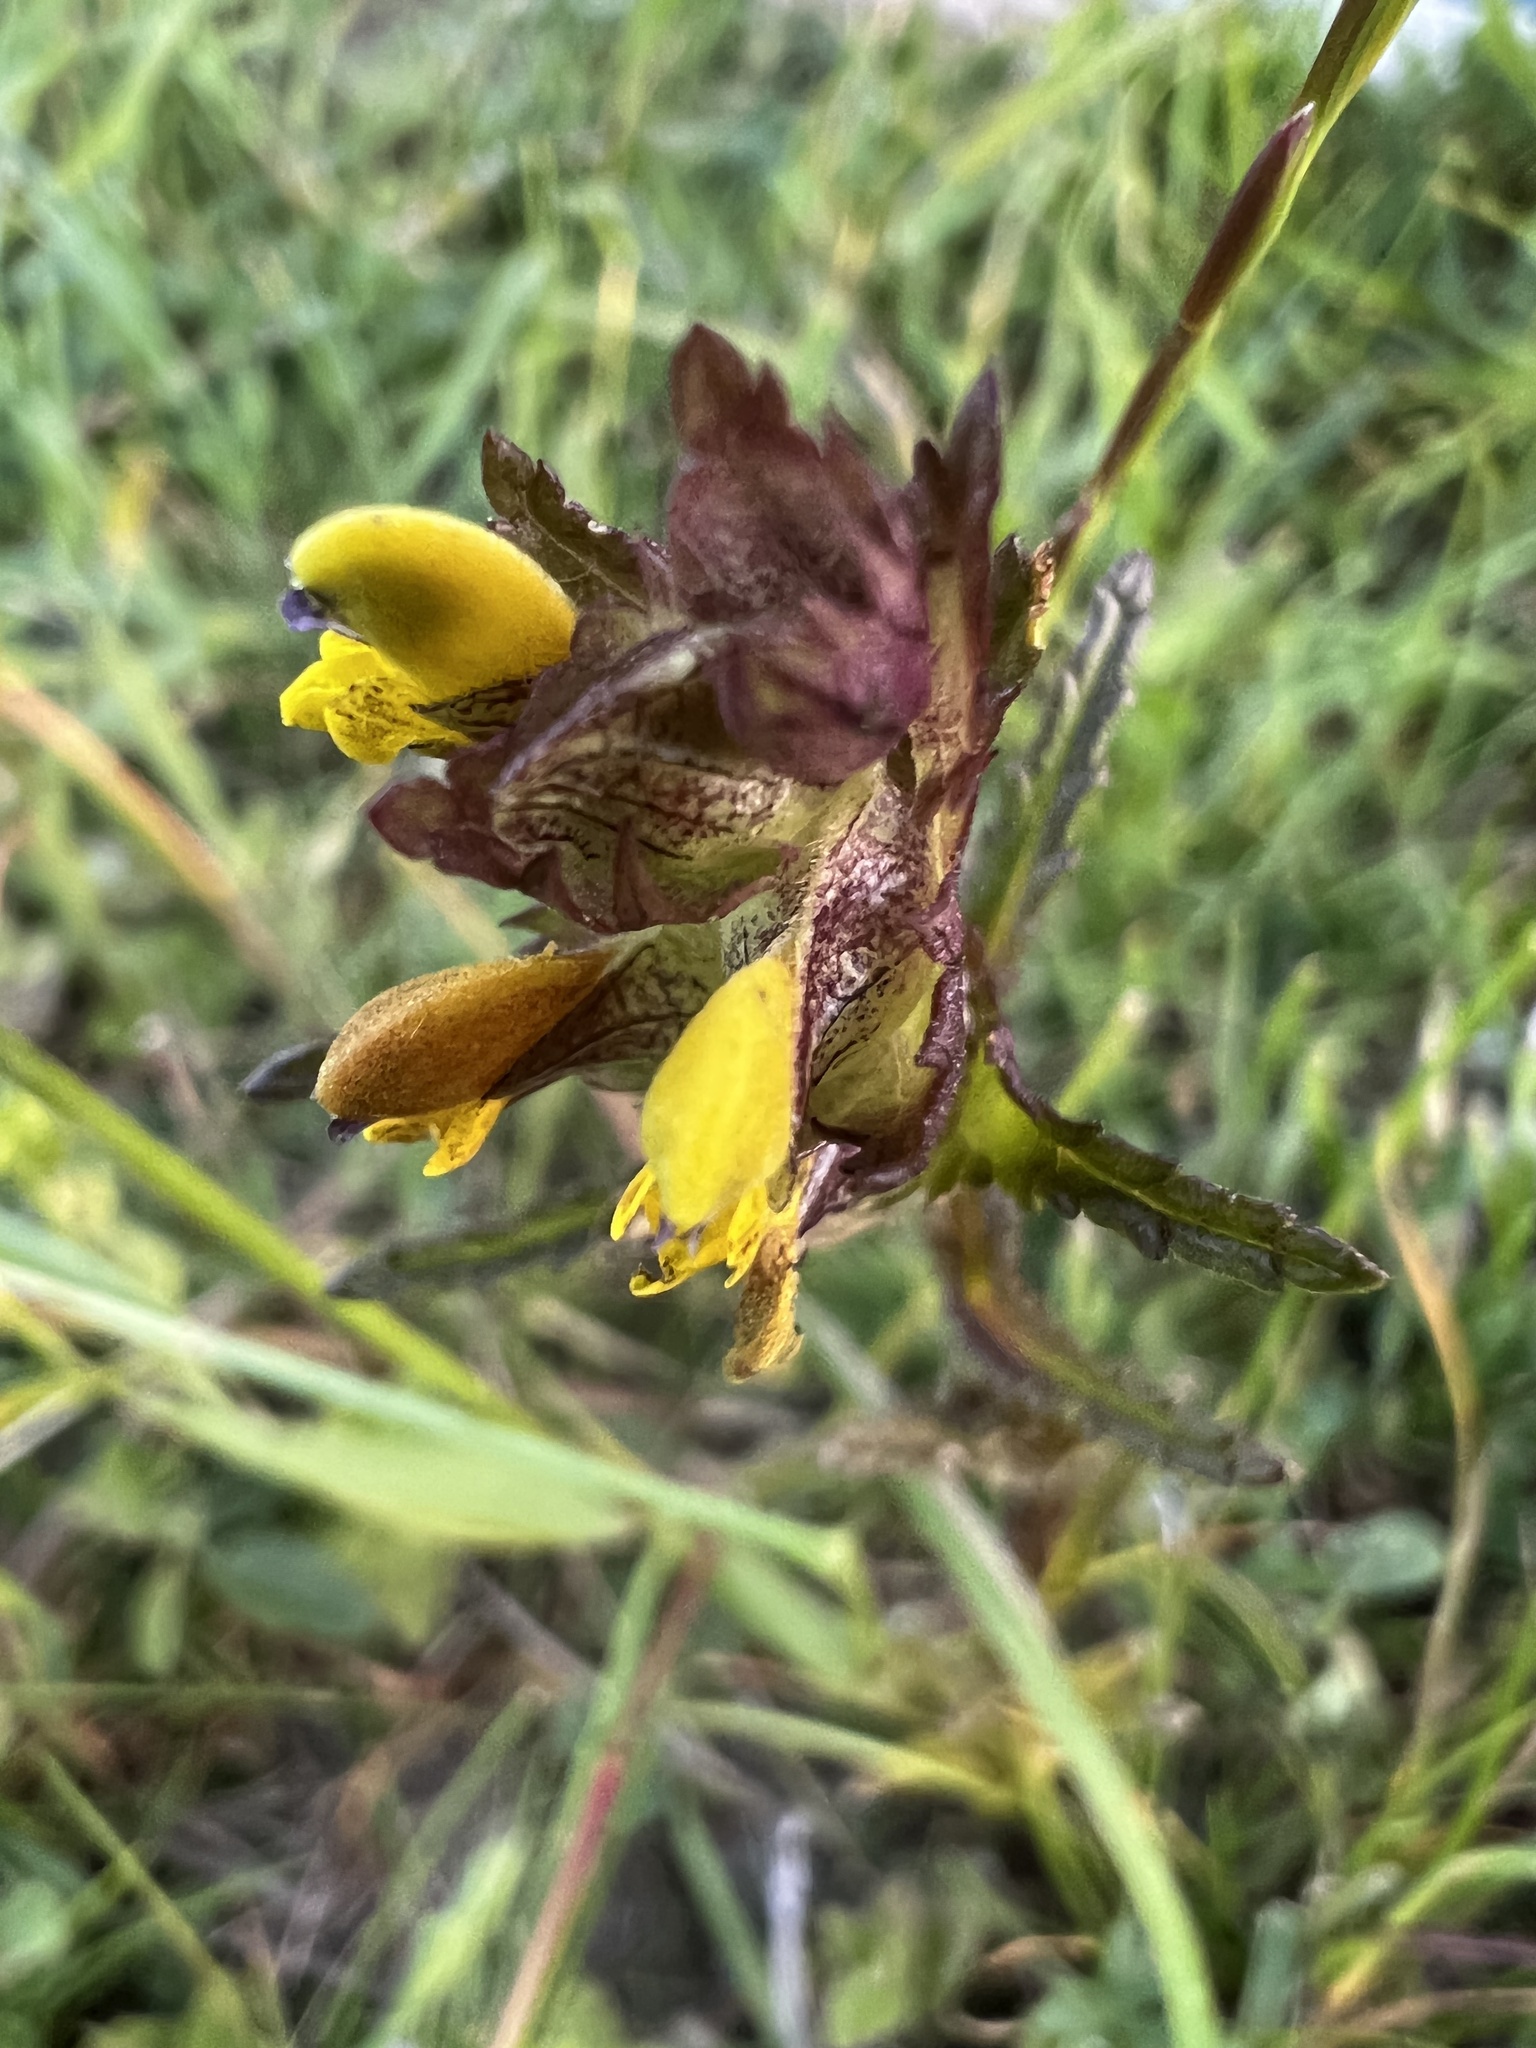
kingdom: Plantae
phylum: Tracheophyta
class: Magnoliopsida
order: Lamiales
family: Orobanchaceae
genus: Rhinanthus
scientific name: Rhinanthus minor
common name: Yellow-rattle
